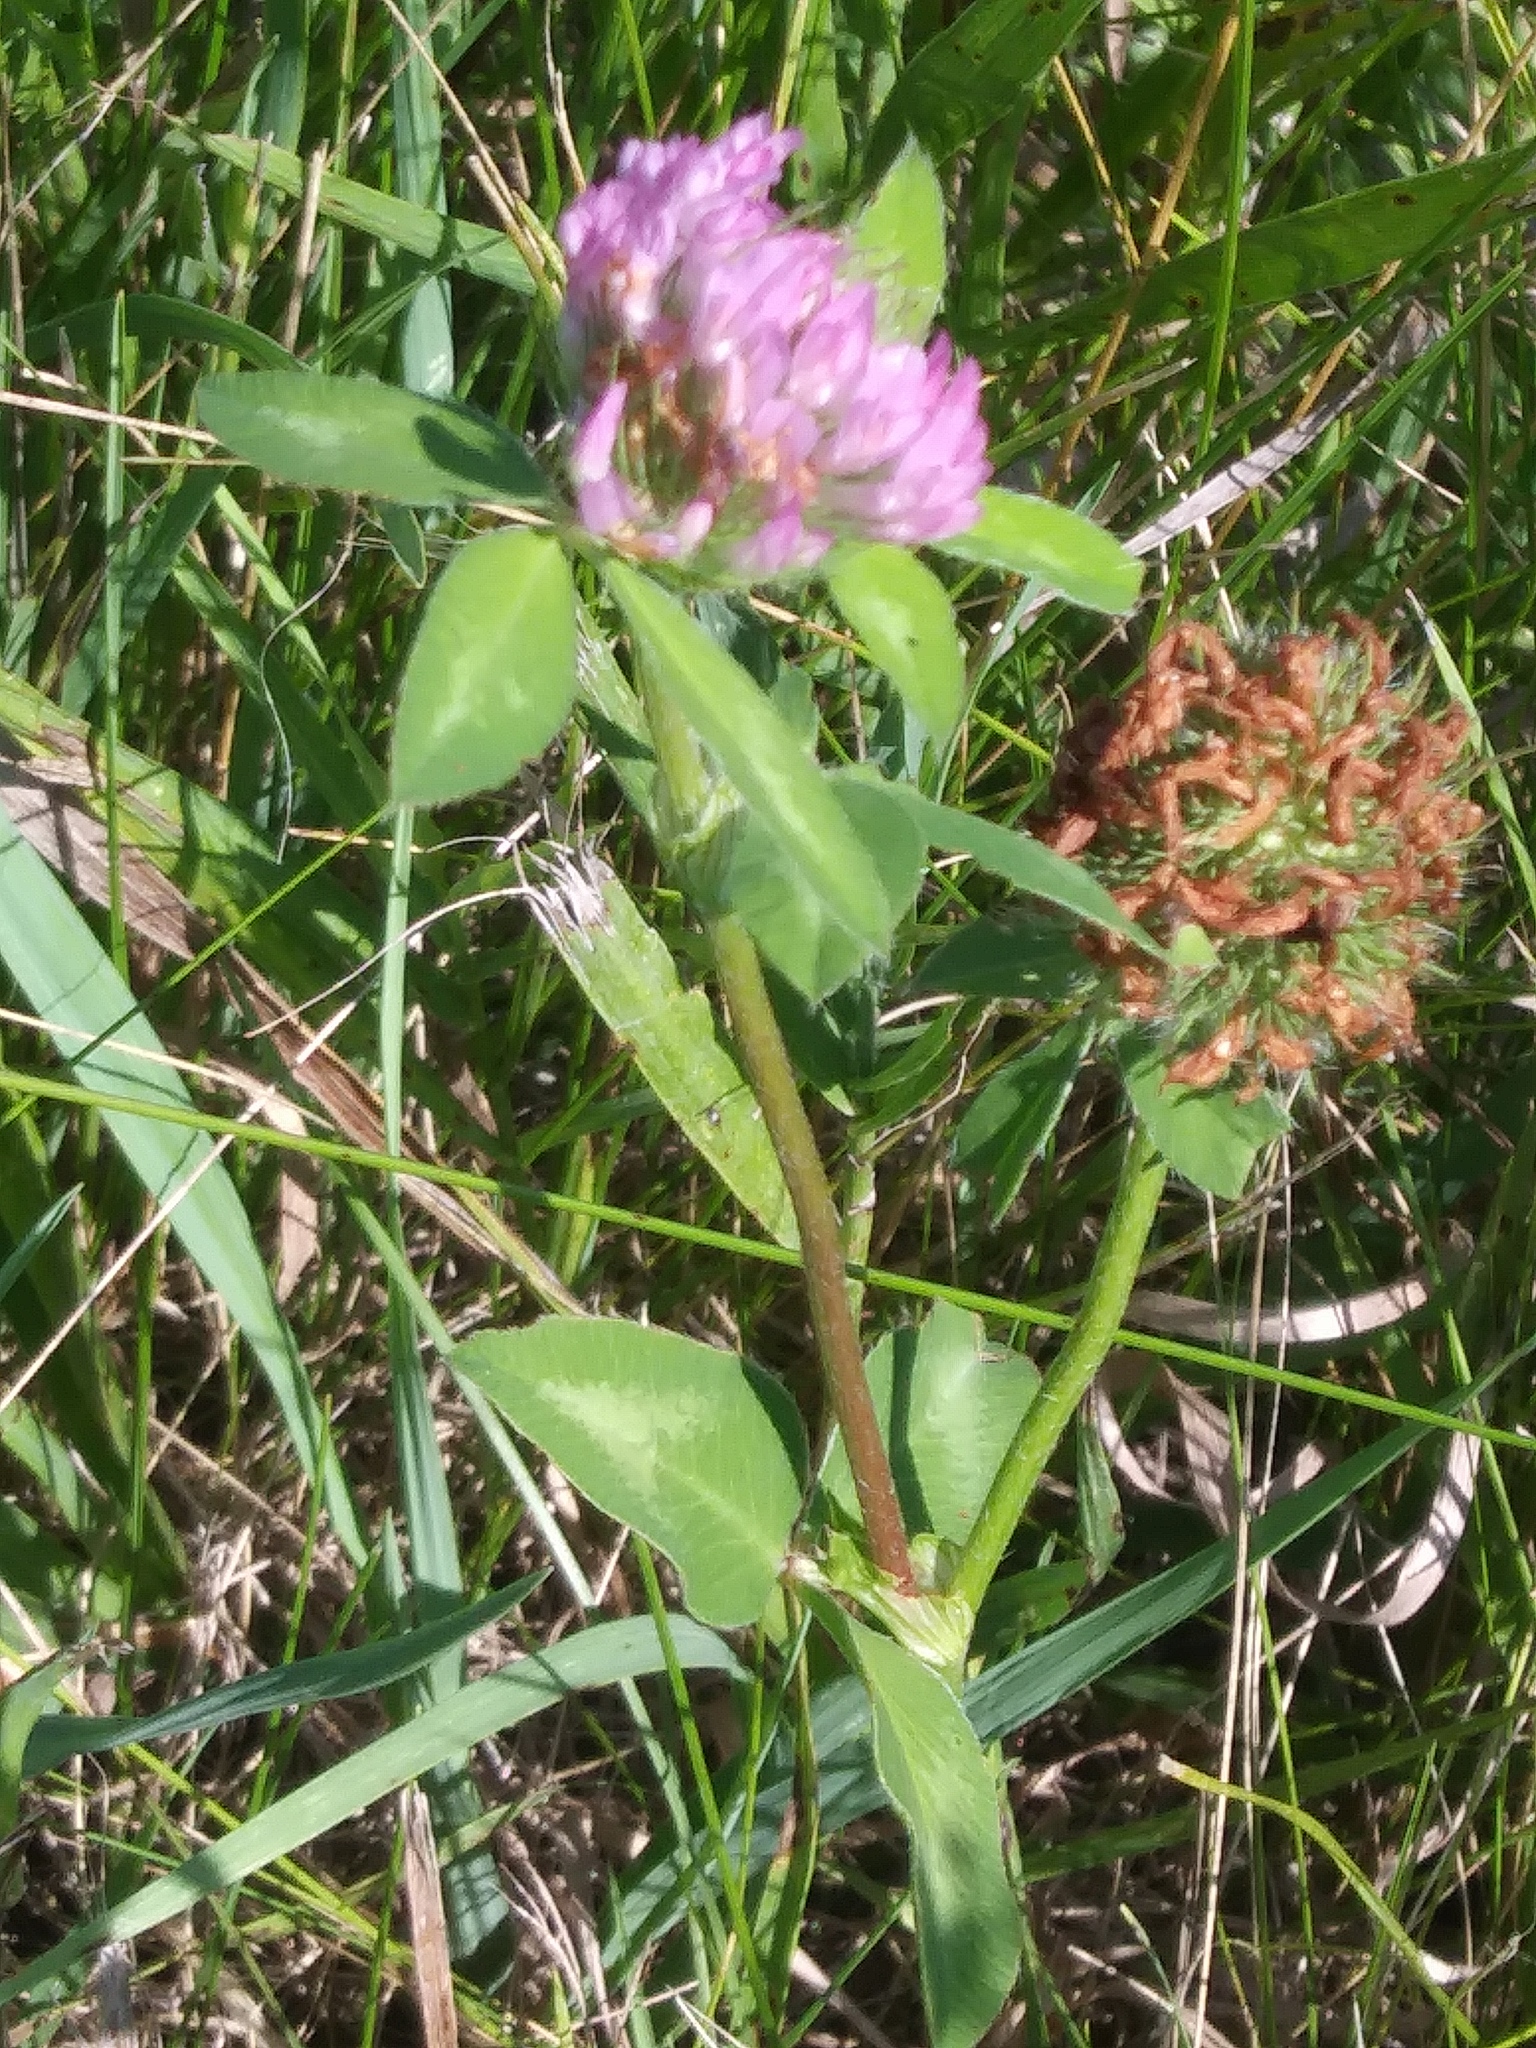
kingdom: Plantae
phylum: Tracheophyta
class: Magnoliopsida
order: Fabales
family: Fabaceae
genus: Trifolium
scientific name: Trifolium pratense
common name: Red clover
